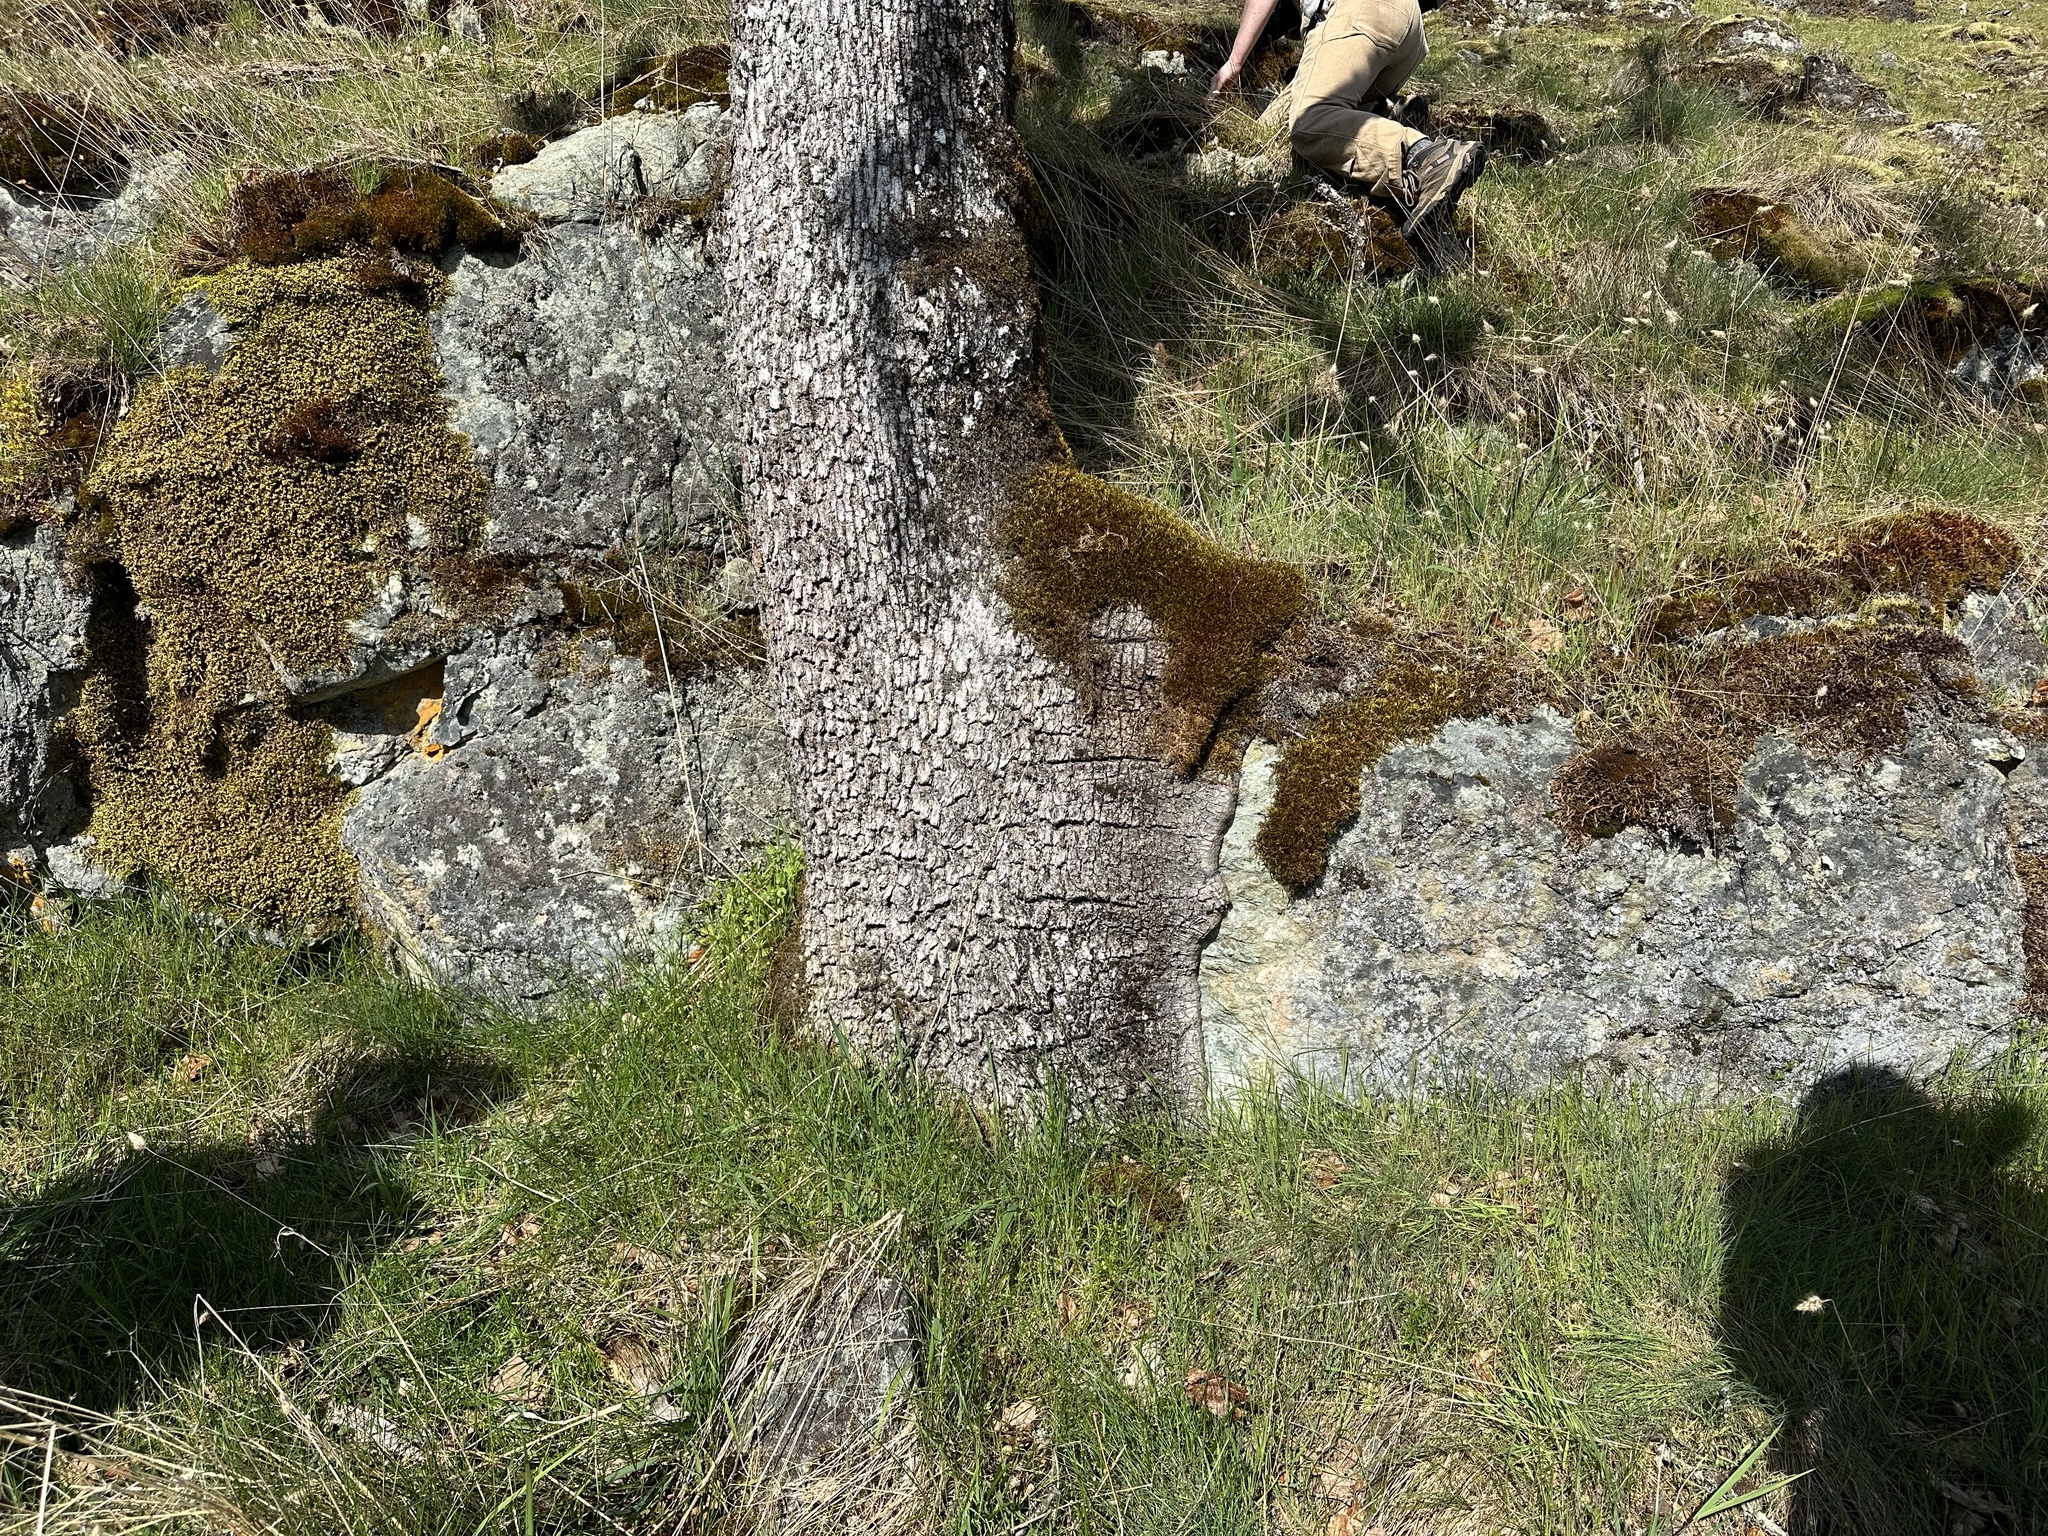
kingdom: Plantae
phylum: Tracheophyta
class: Magnoliopsida
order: Fagales
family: Fagaceae
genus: Quercus
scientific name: Quercus garryana
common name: Garry oak
